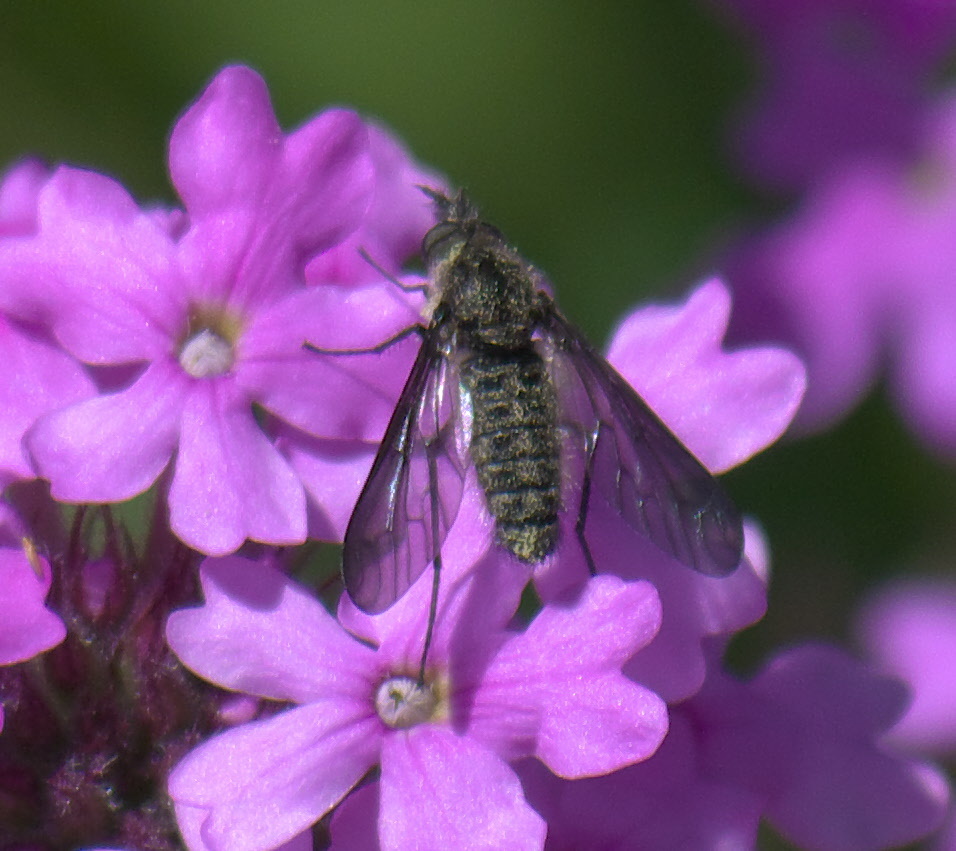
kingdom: Animalia
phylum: Arthropoda
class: Insecta
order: Diptera
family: Bombyliidae
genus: Aldrichia
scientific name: Aldrichia ehrmanni
